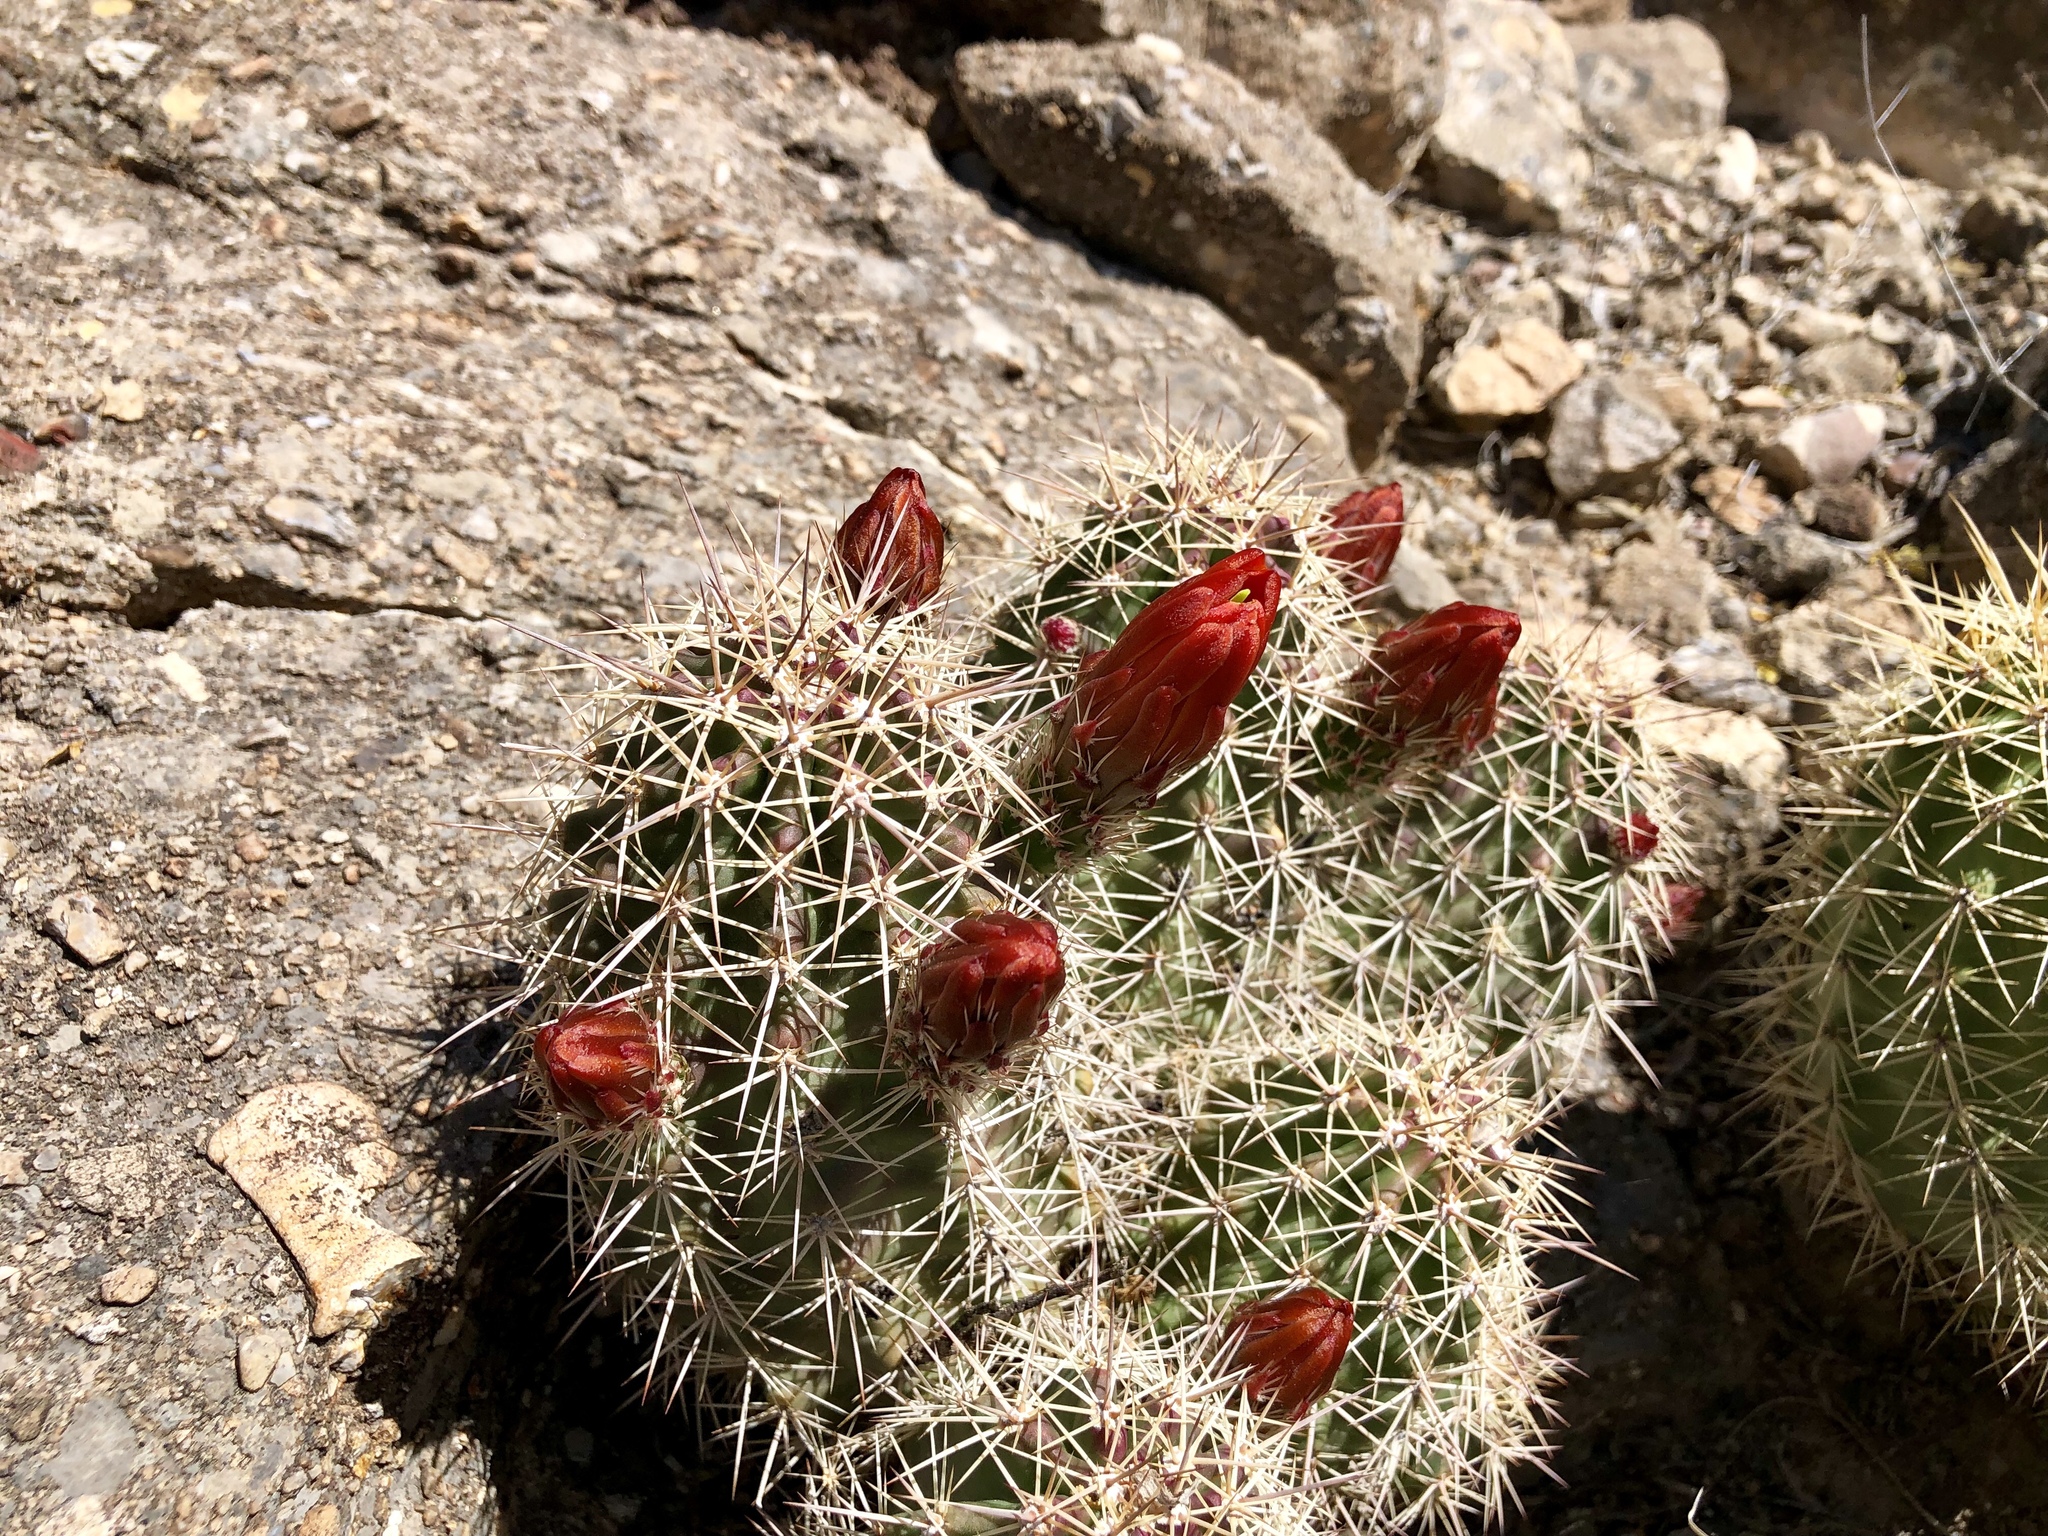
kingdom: Plantae
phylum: Tracheophyta
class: Magnoliopsida
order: Caryophyllales
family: Cactaceae
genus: Echinocereus
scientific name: Echinocereus coccineus
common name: Scarlet hedgehog cactus
